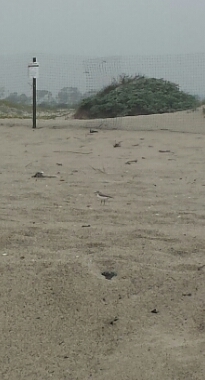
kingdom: Animalia
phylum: Chordata
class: Aves
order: Charadriiformes
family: Charadriidae
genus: Anarhynchus
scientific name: Anarhynchus
